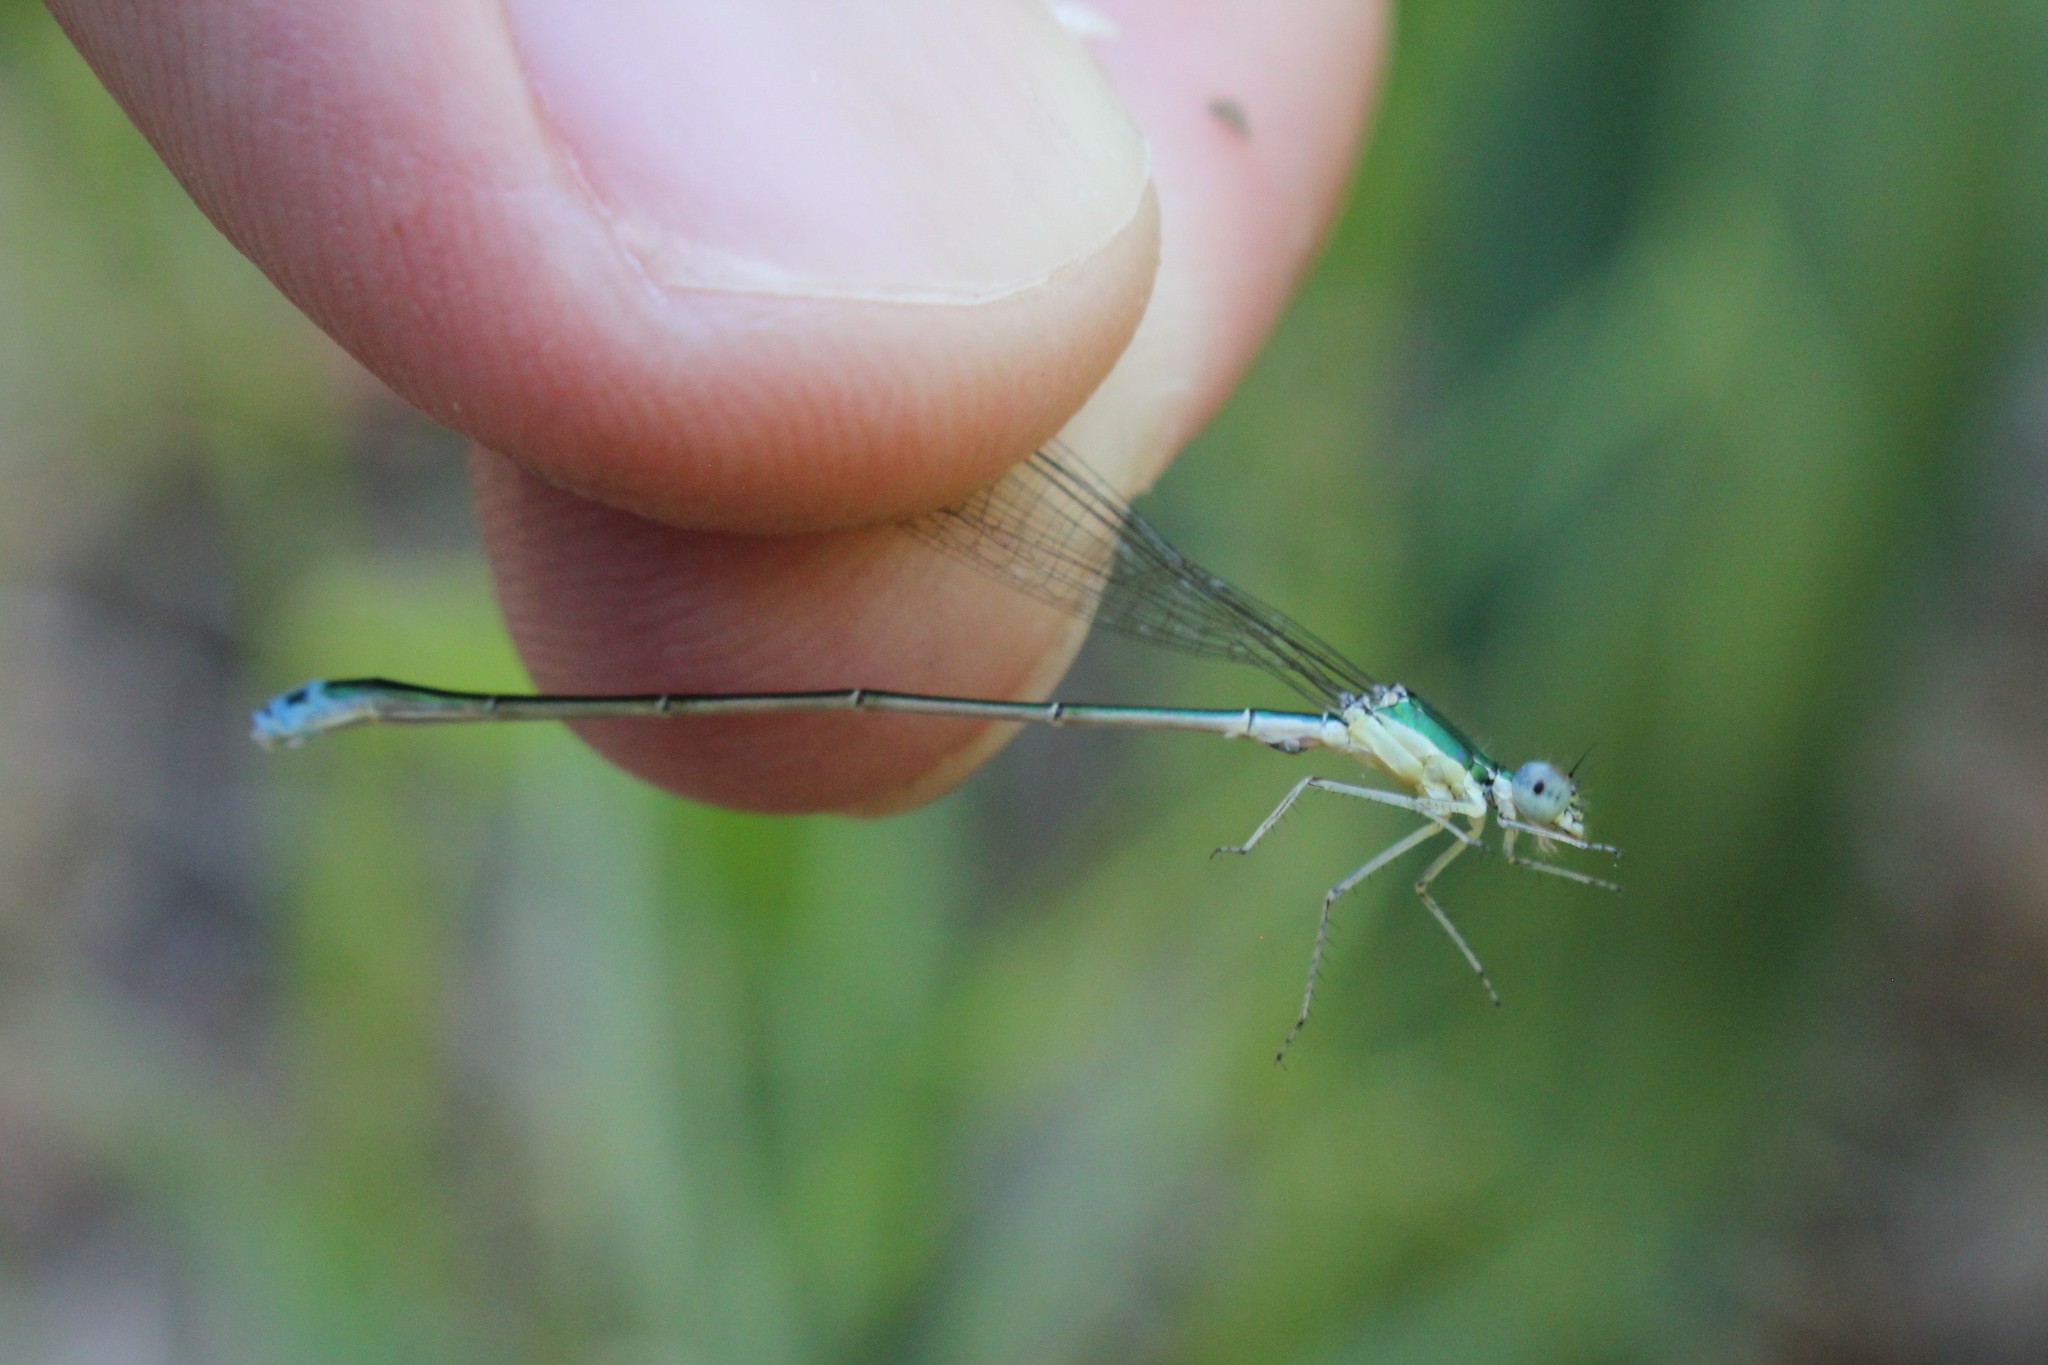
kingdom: Animalia
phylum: Arthropoda
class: Insecta
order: Odonata
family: Coenagrionidae
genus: Nehalennia
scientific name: Nehalennia irene
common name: Sedge sprite
